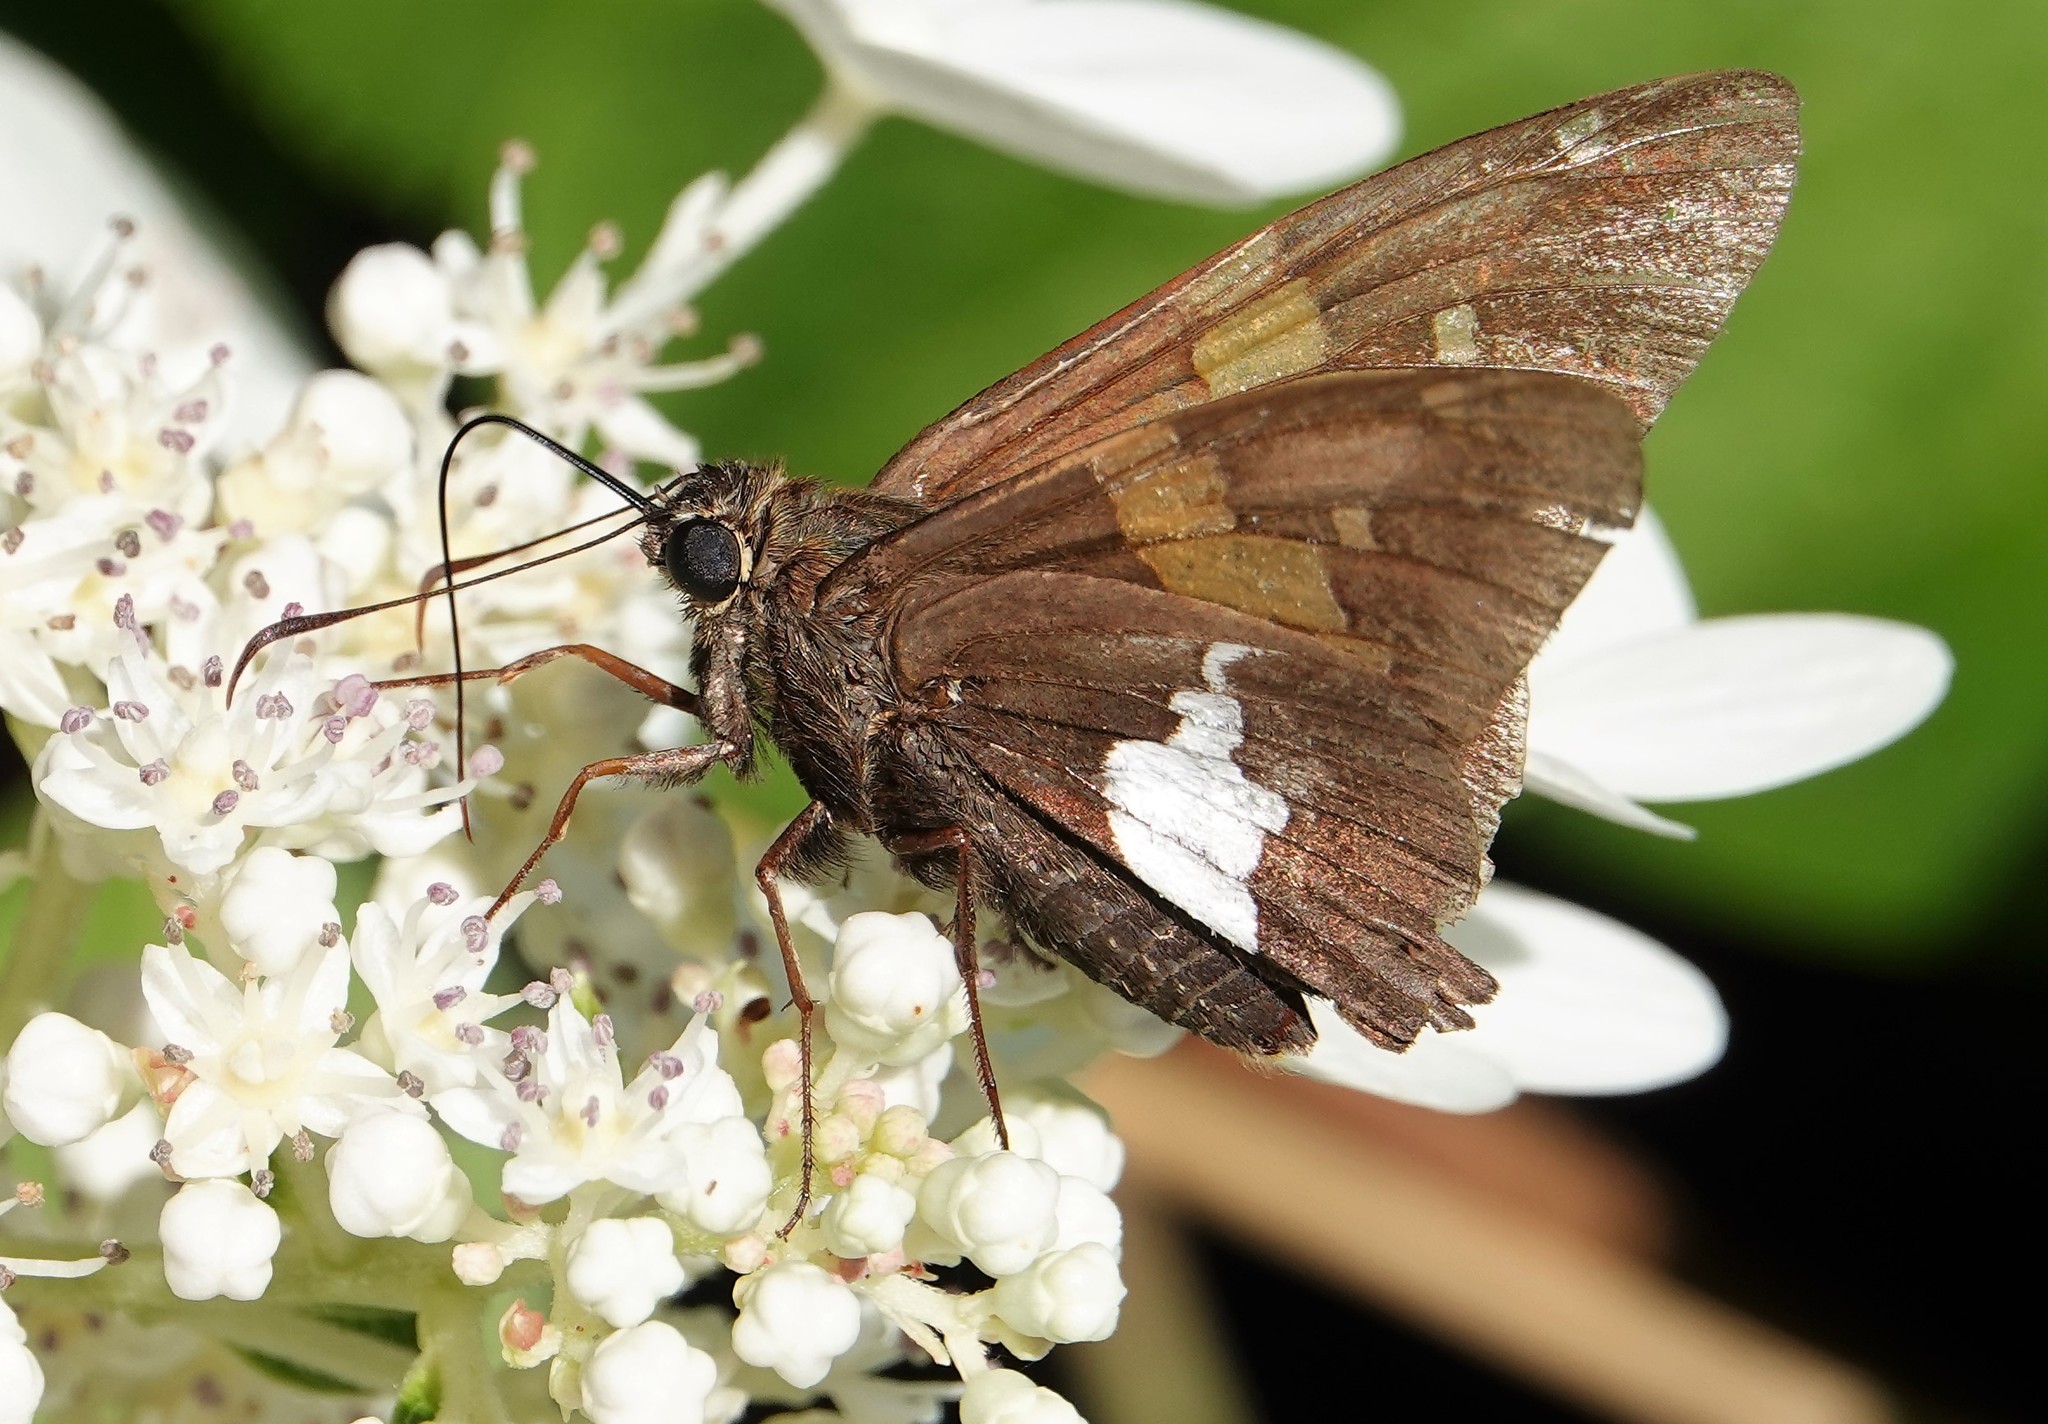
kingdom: Animalia
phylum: Arthropoda
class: Insecta
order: Lepidoptera
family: Hesperiidae
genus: Epargyreus
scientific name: Epargyreus clarus
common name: Silver-spotted skipper
